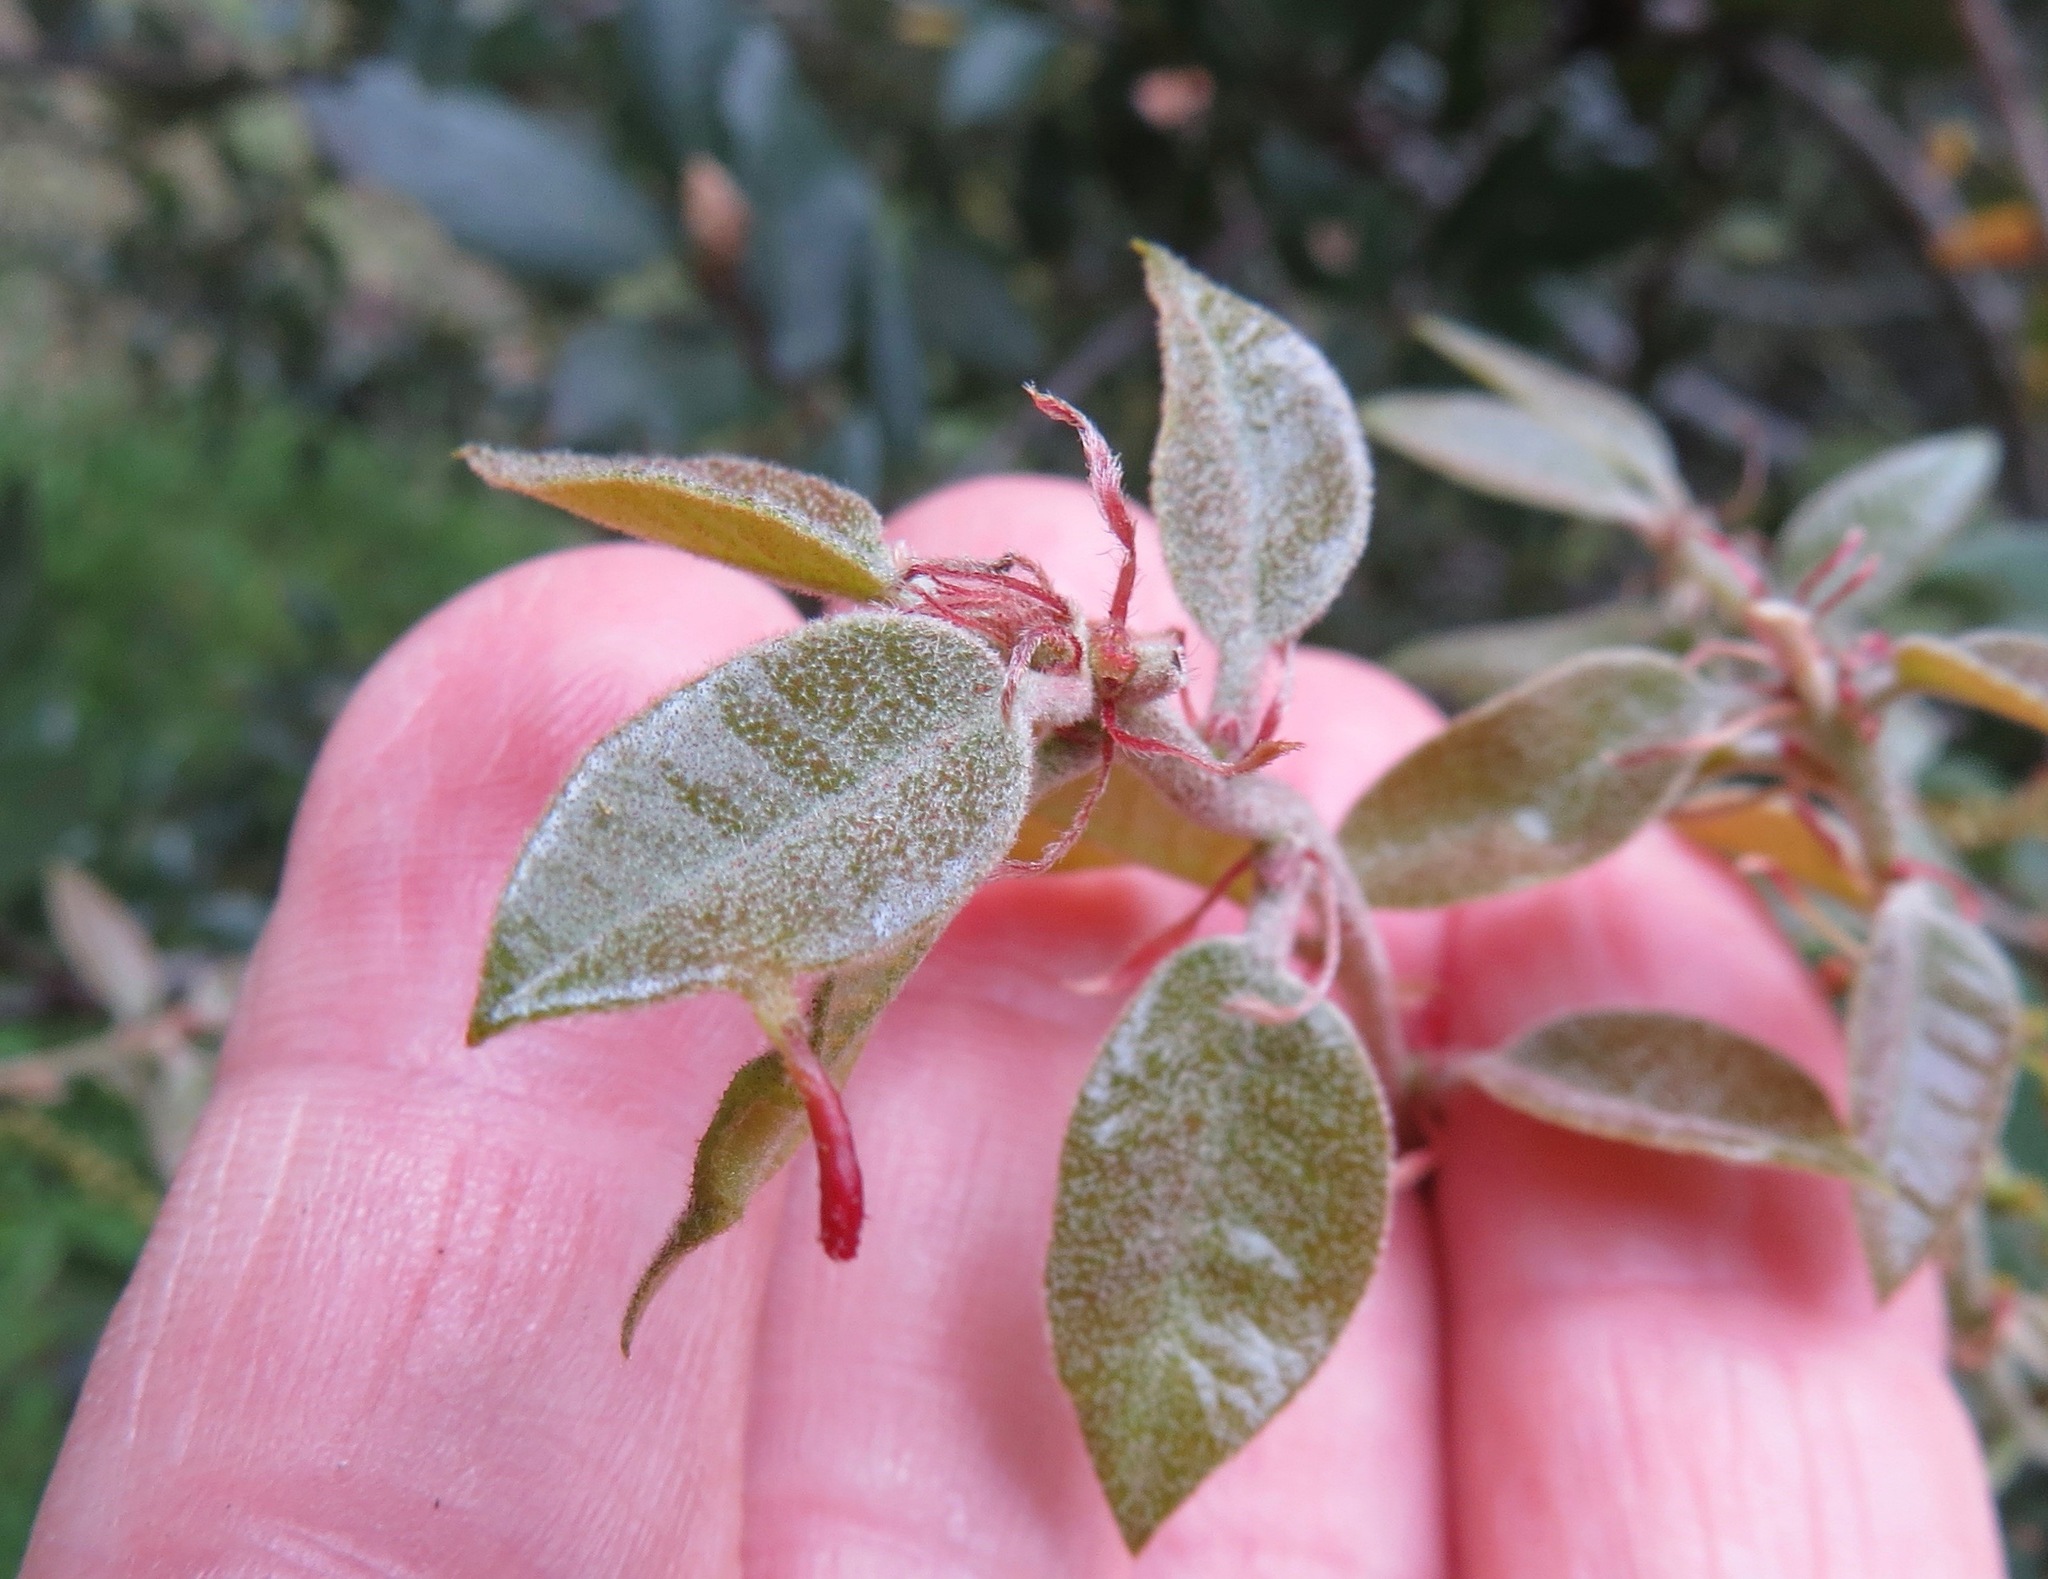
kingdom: Animalia
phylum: Arthropoda
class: Insecta
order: Hymenoptera
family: Cynipidae
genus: Heteroecus
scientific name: Heteroecus
